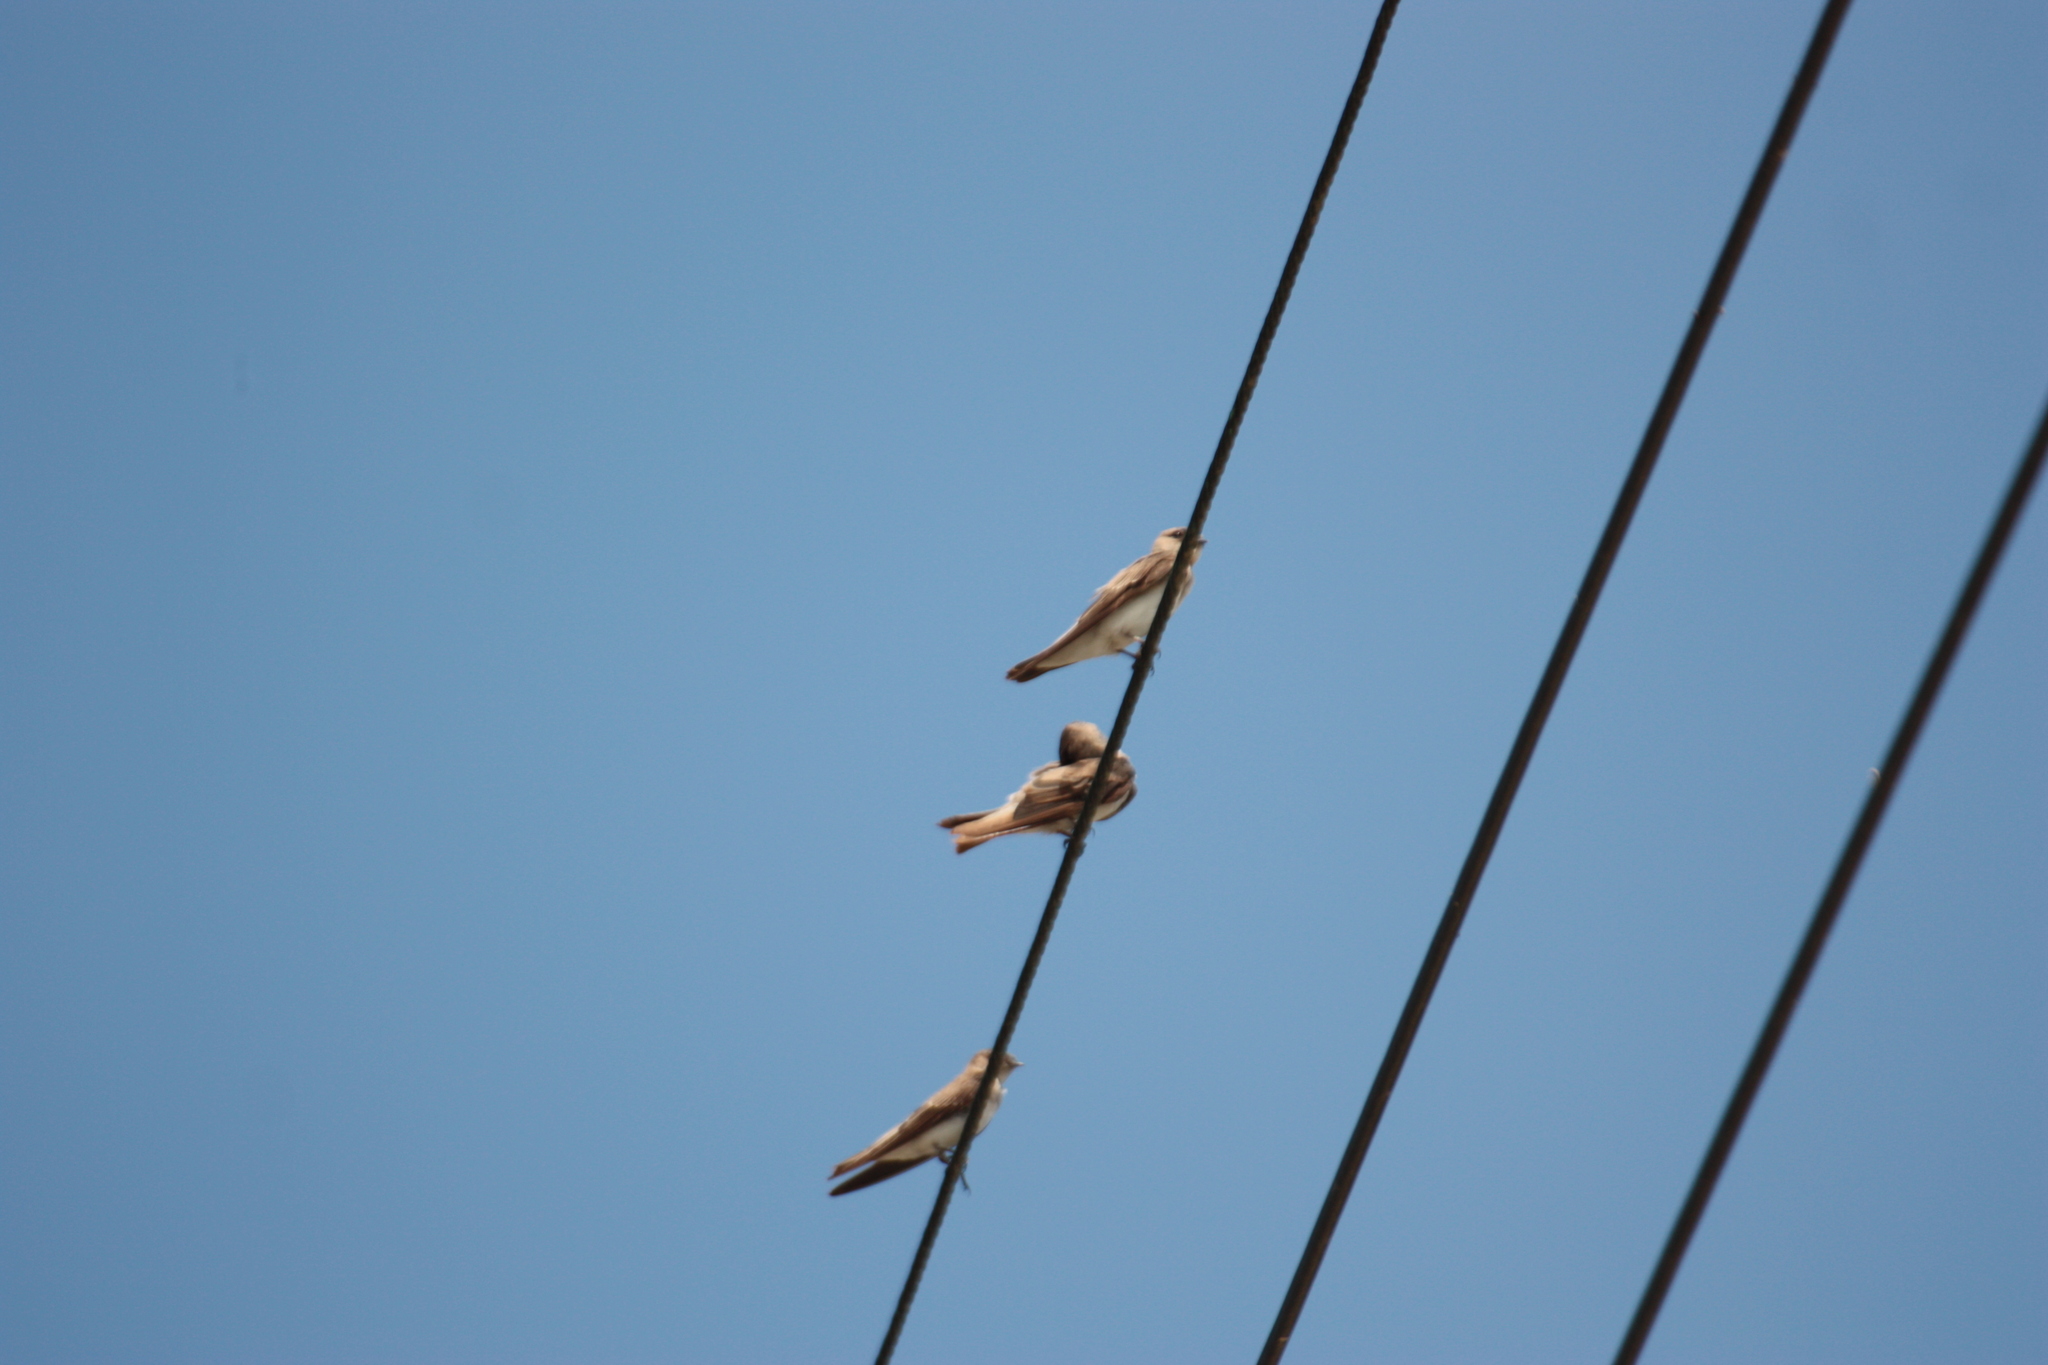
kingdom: Animalia
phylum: Chordata
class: Aves
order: Passeriformes
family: Hirundinidae
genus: Riparia
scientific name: Riparia chinensis
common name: Gray-throated martin
